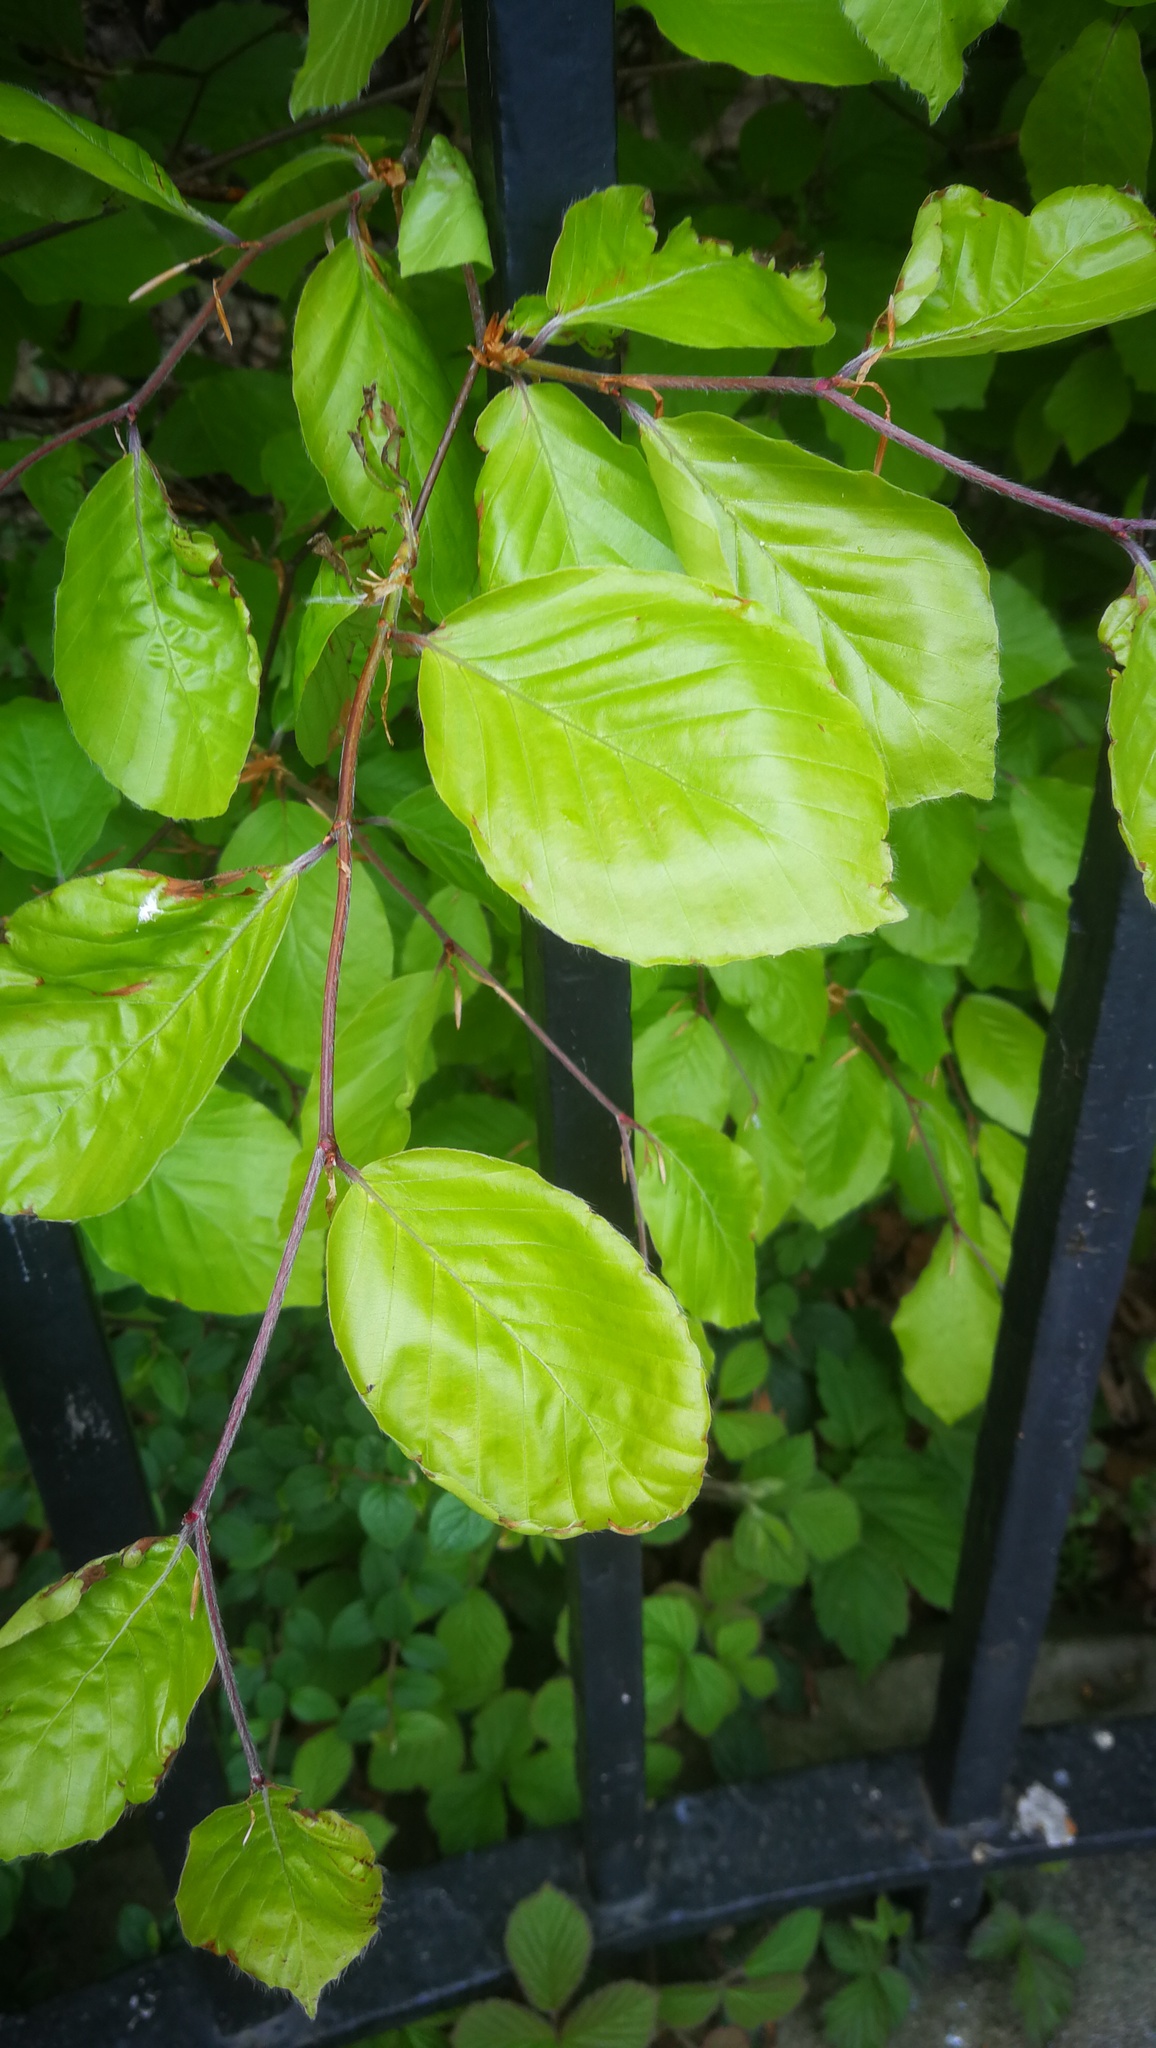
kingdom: Plantae
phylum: Tracheophyta
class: Magnoliopsida
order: Fagales
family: Fagaceae
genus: Fagus
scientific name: Fagus sylvatica
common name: Beech
